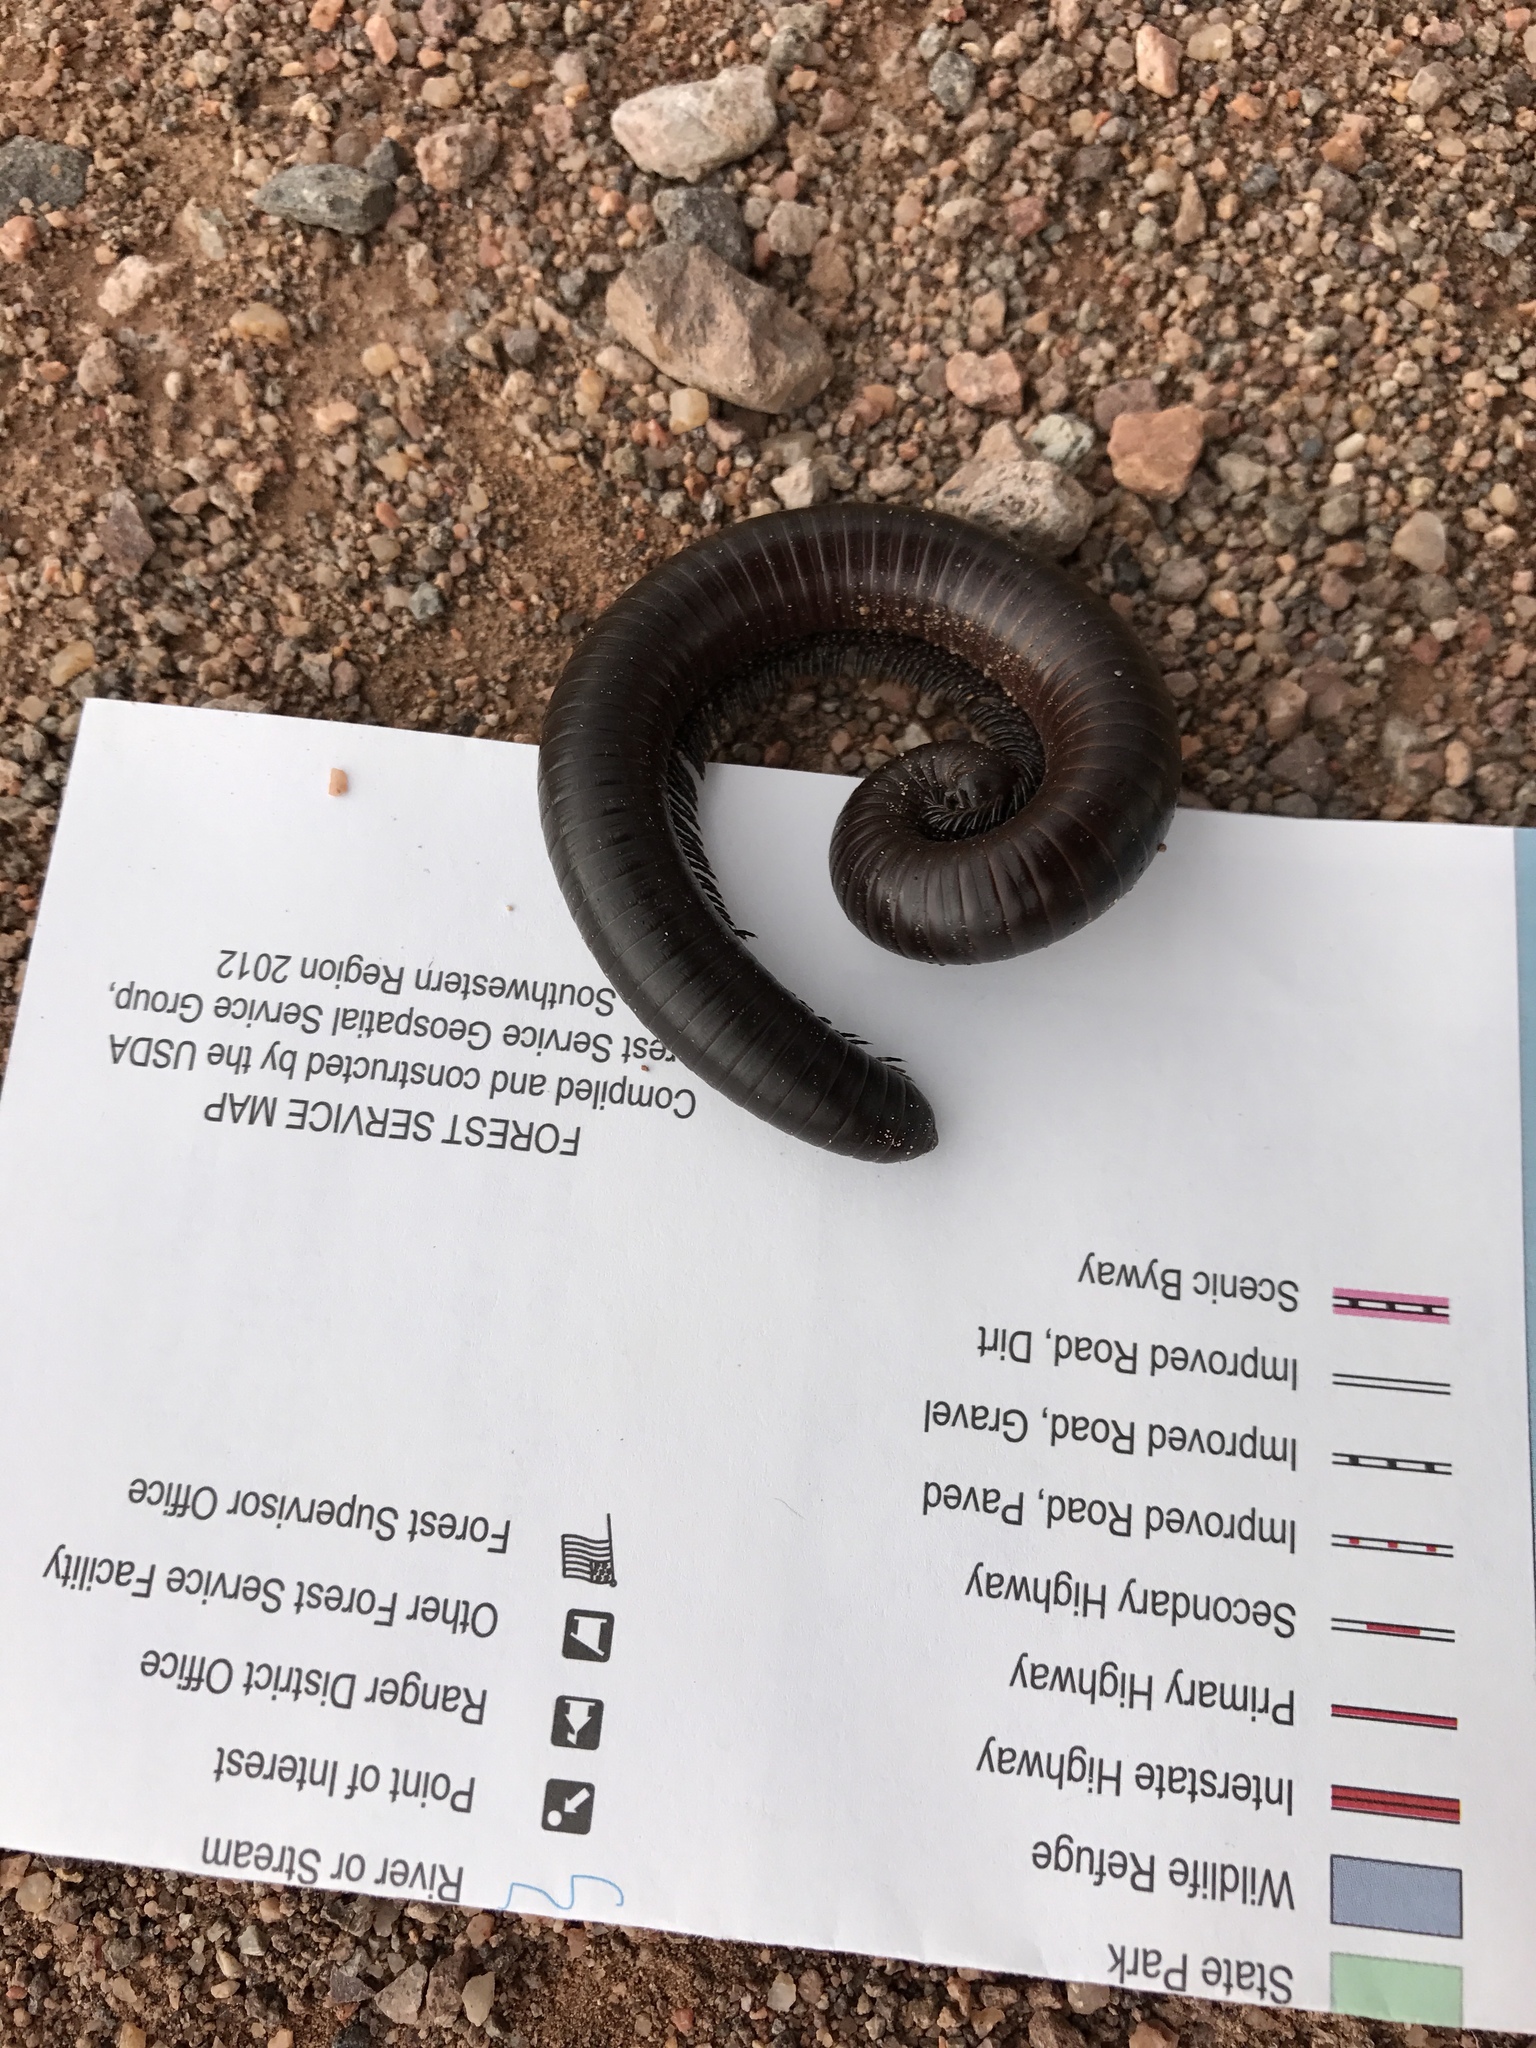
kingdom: Animalia
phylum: Arthropoda
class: Diplopoda
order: Spirostreptida
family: Spirostreptidae
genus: Orthoporus
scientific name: Orthoporus ornatus
